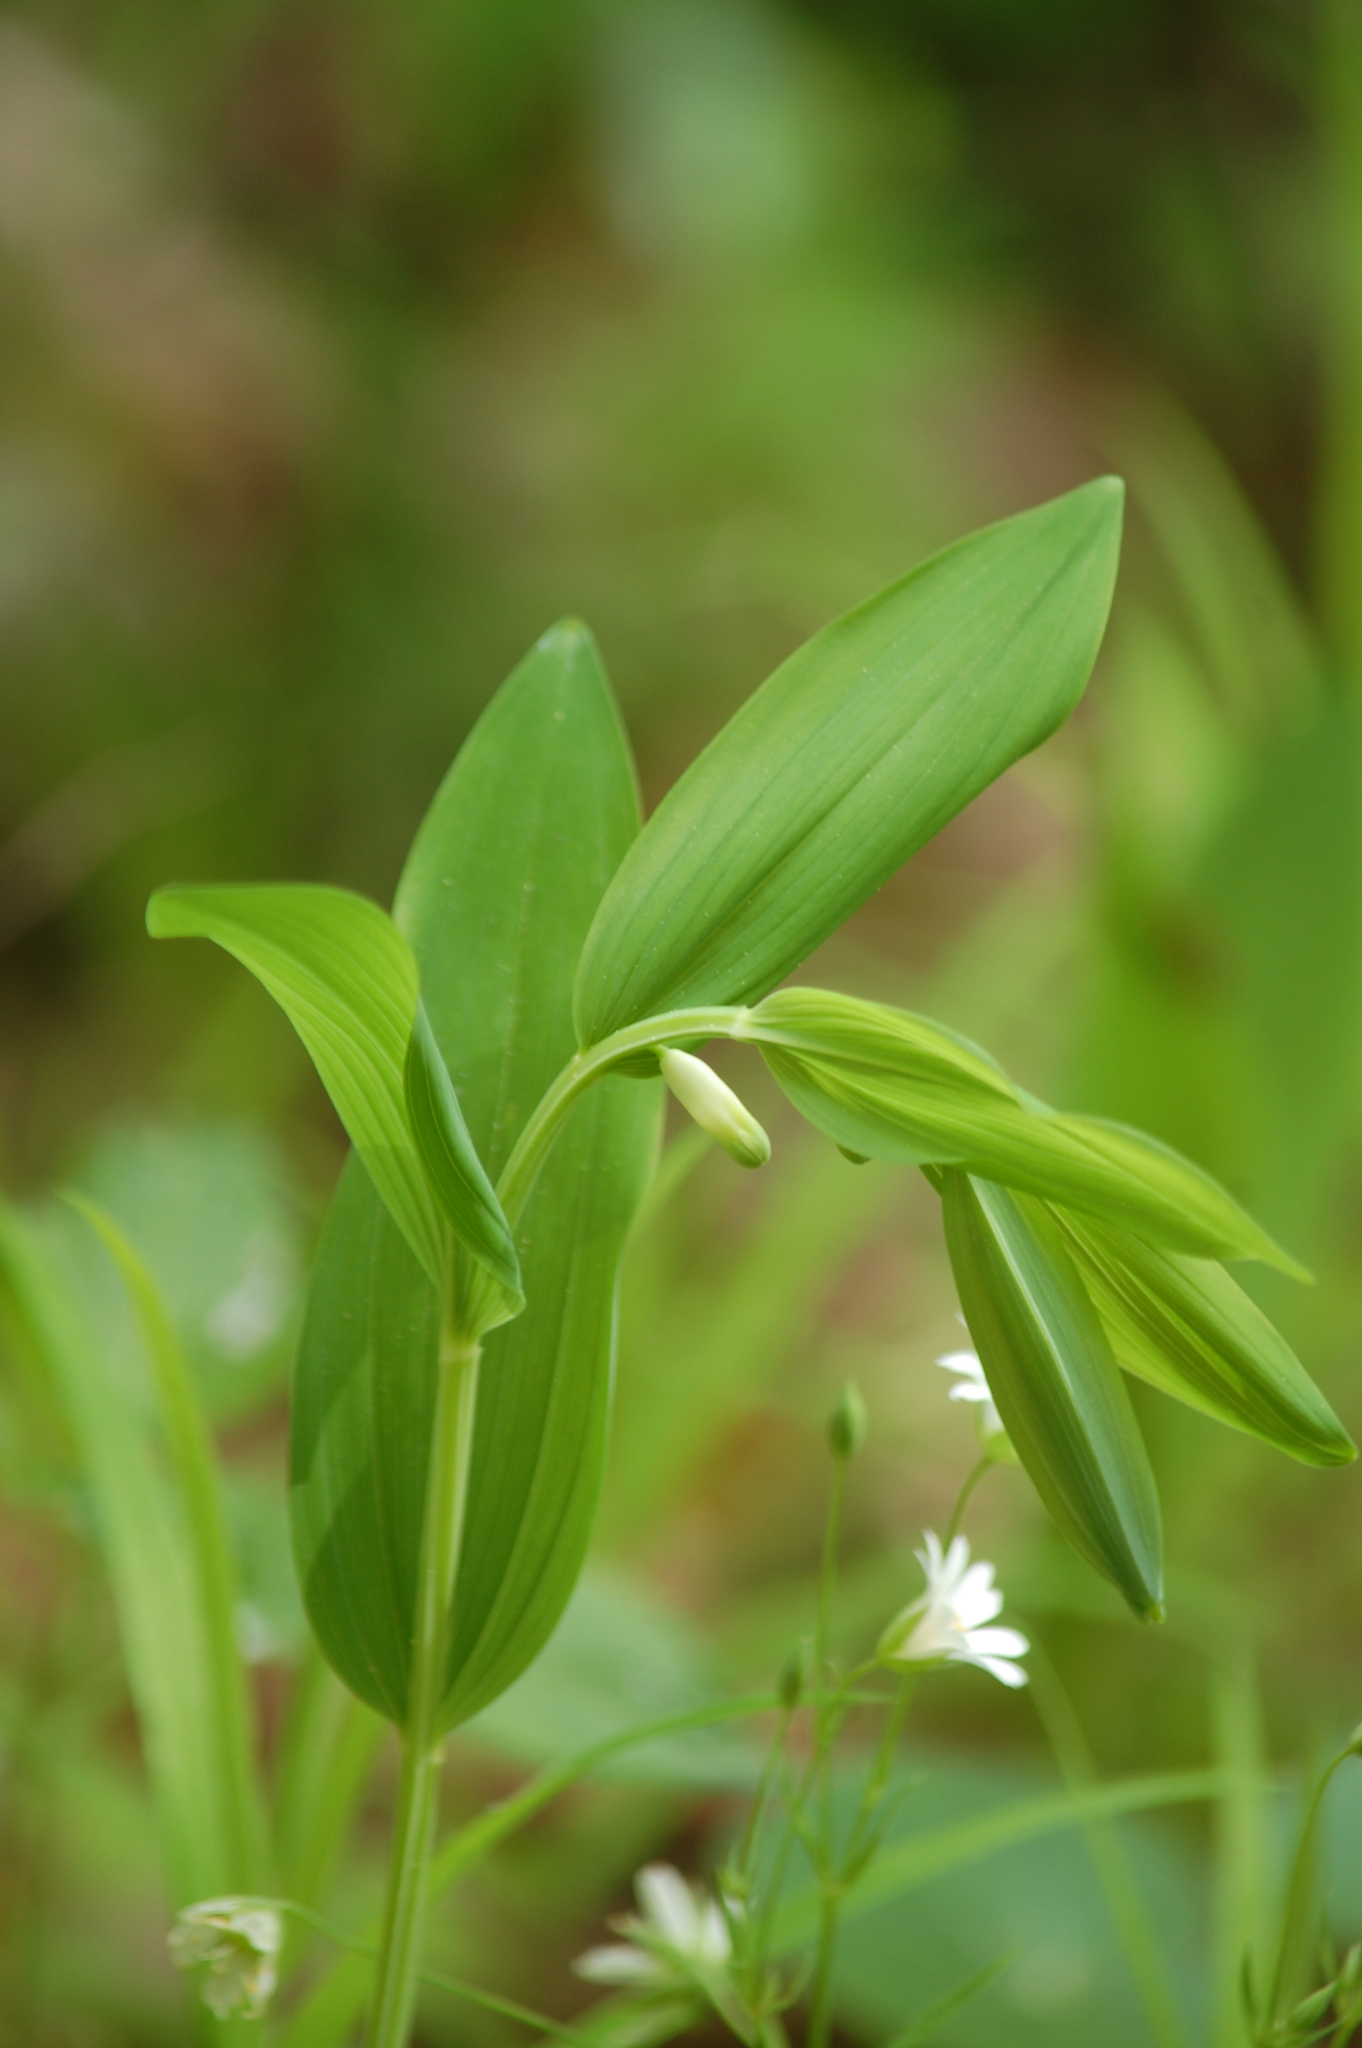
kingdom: Plantae
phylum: Tracheophyta
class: Liliopsida
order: Asparagales
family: Asparagaceae
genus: Polygonatum
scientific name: Polygonatum odoratum
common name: Angular solomon's-seal
